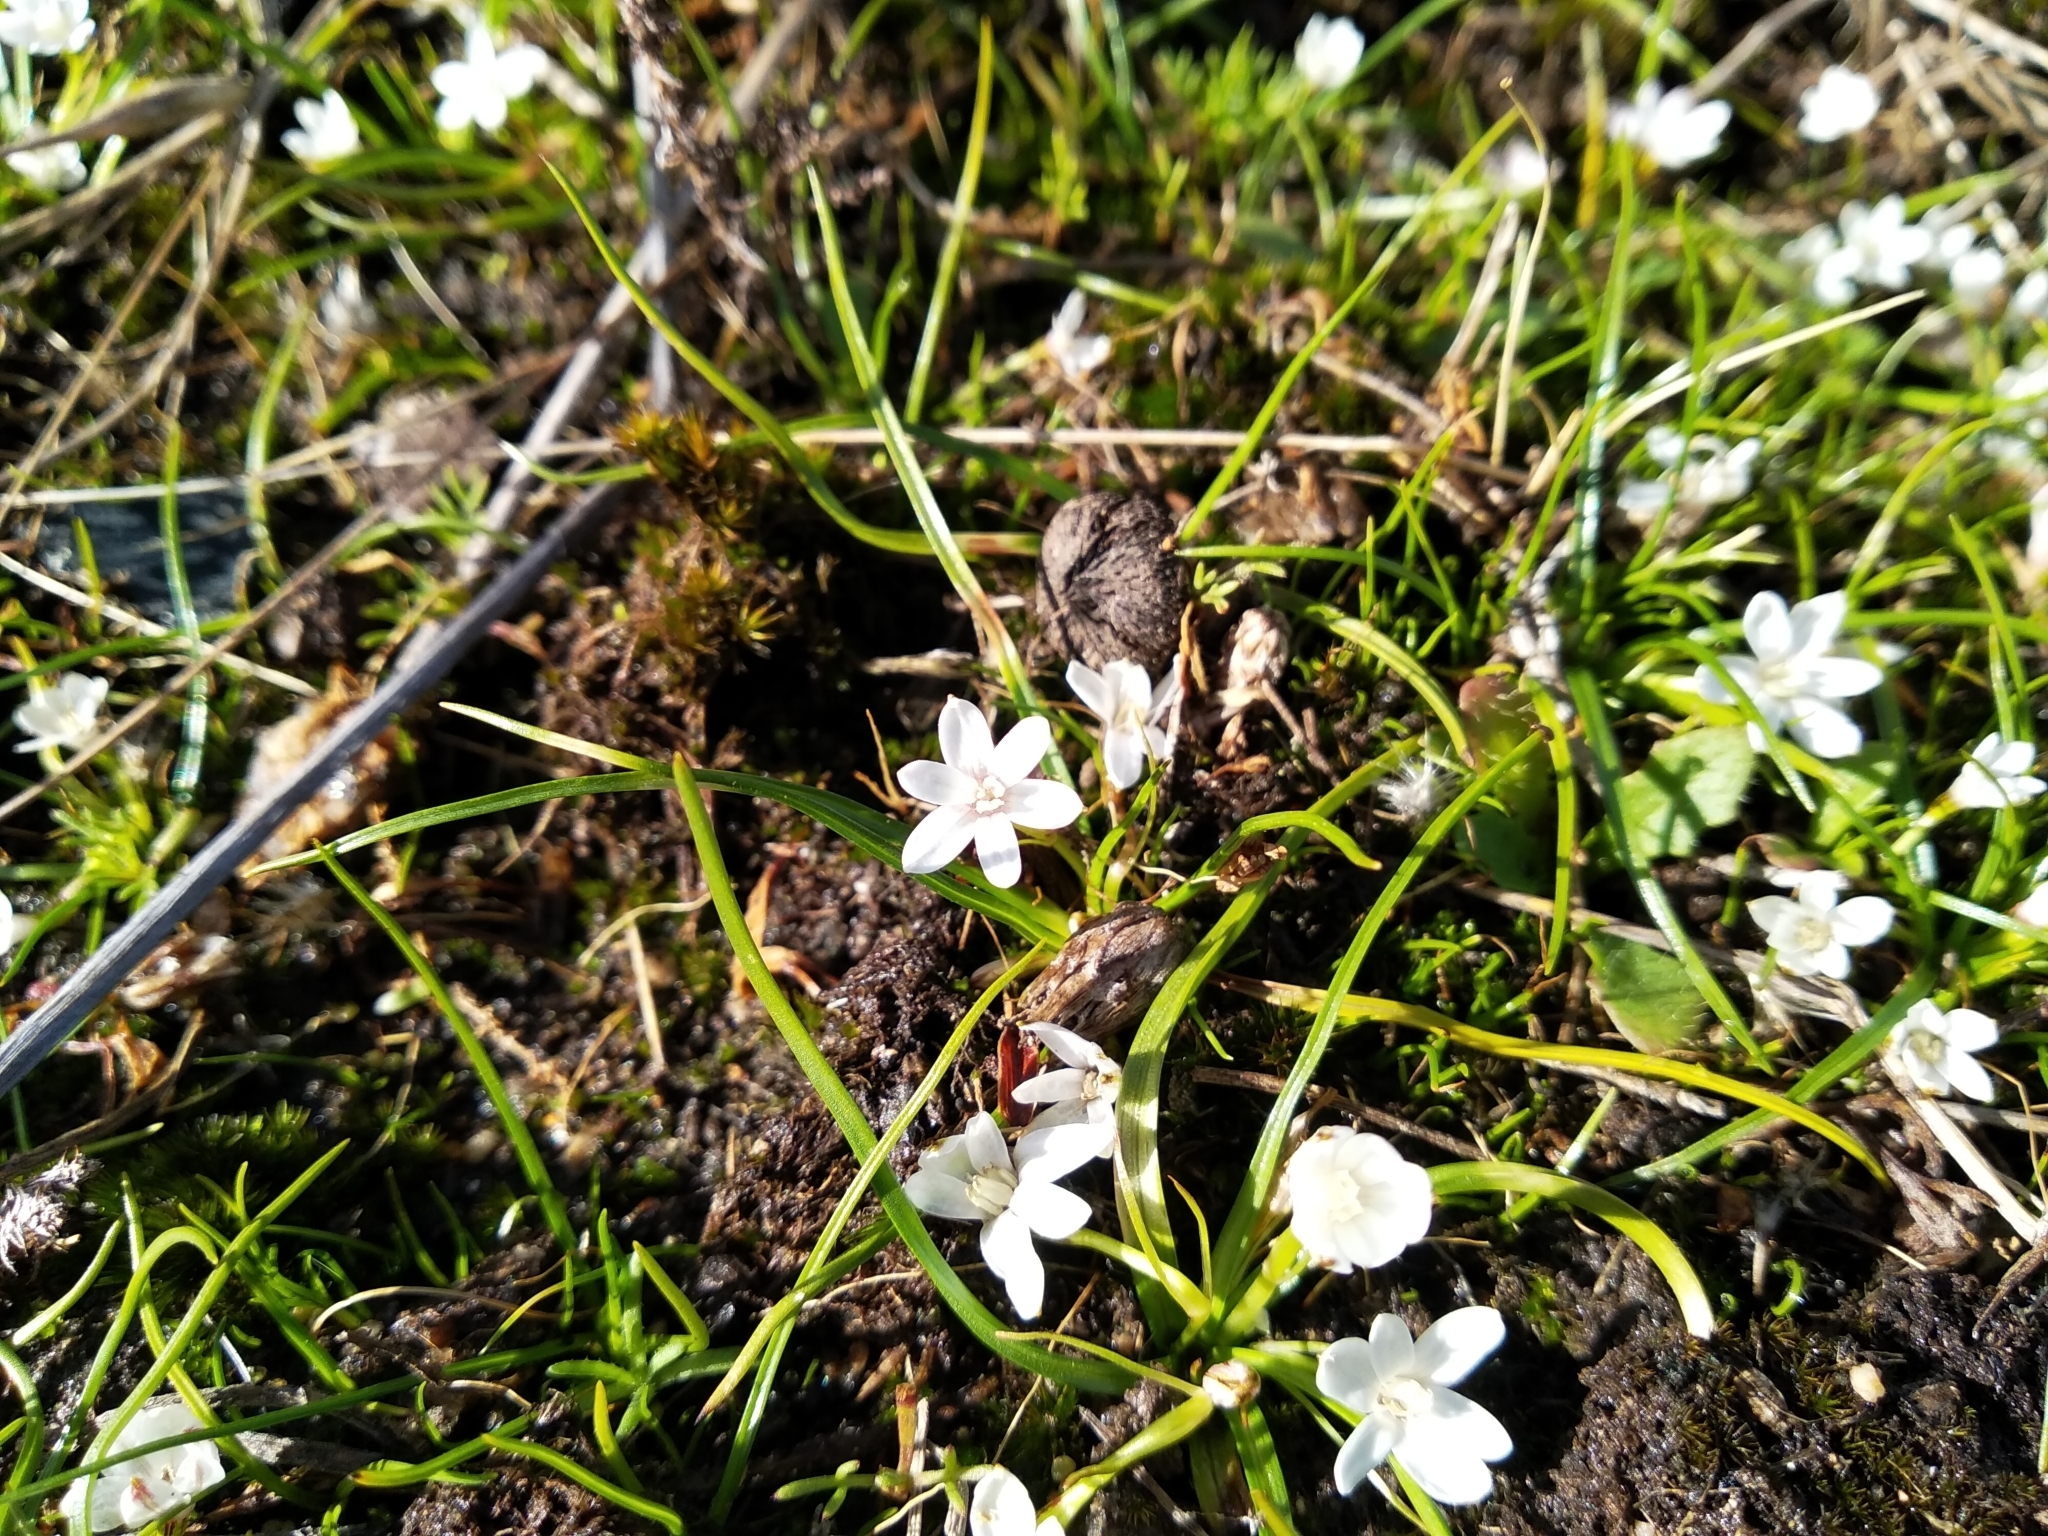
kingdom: Plantae
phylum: Tracheophyta
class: Liliopsida
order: Asparagales
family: Hypoxidaceae
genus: Pauridia
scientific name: Pauridia minuta
